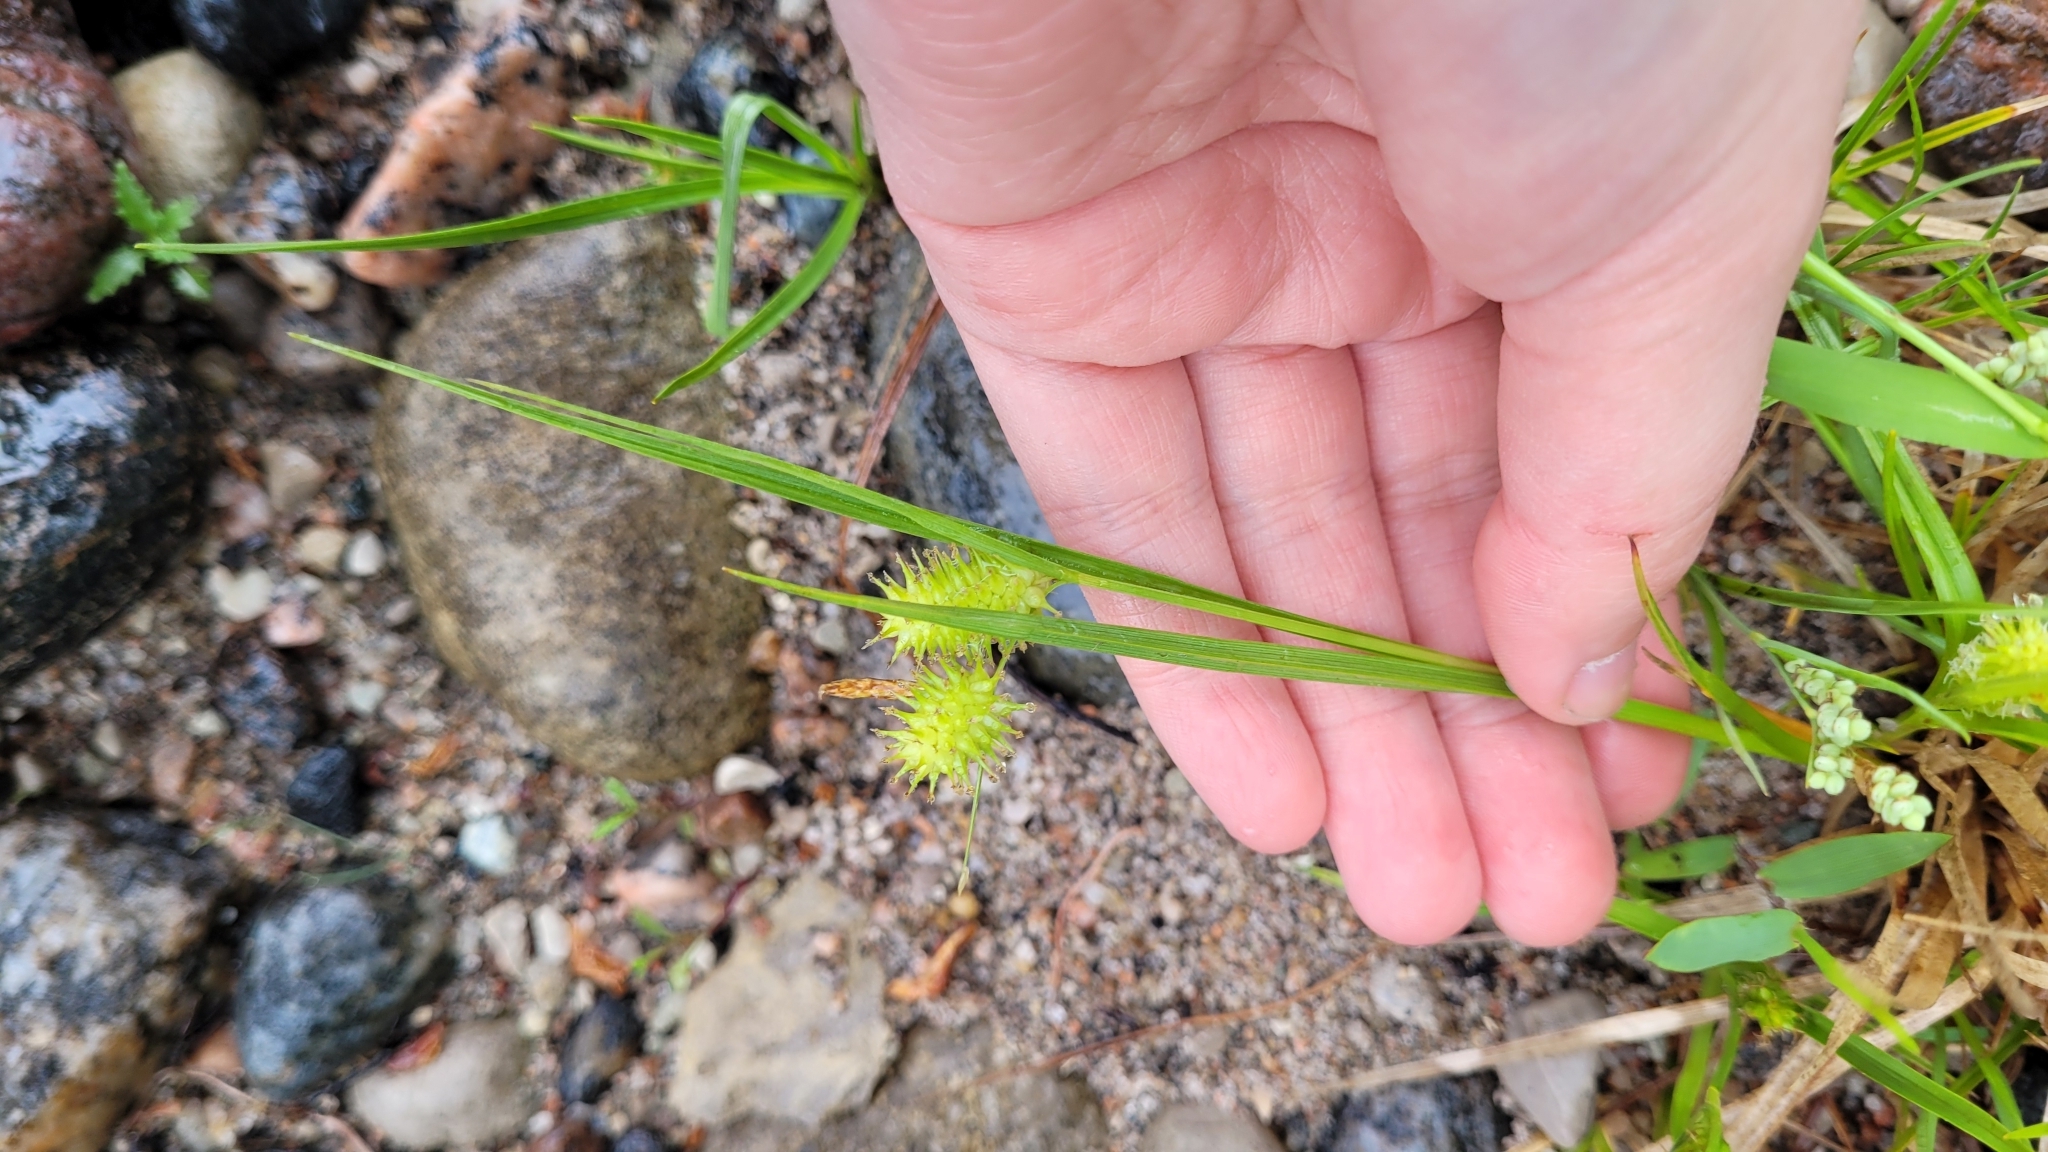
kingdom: Plantae
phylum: Tracheophyta
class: Liliopsida
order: Poales
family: Cyperaceae
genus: Carex
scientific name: Carex hystericina
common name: Bottlebrush sedge
